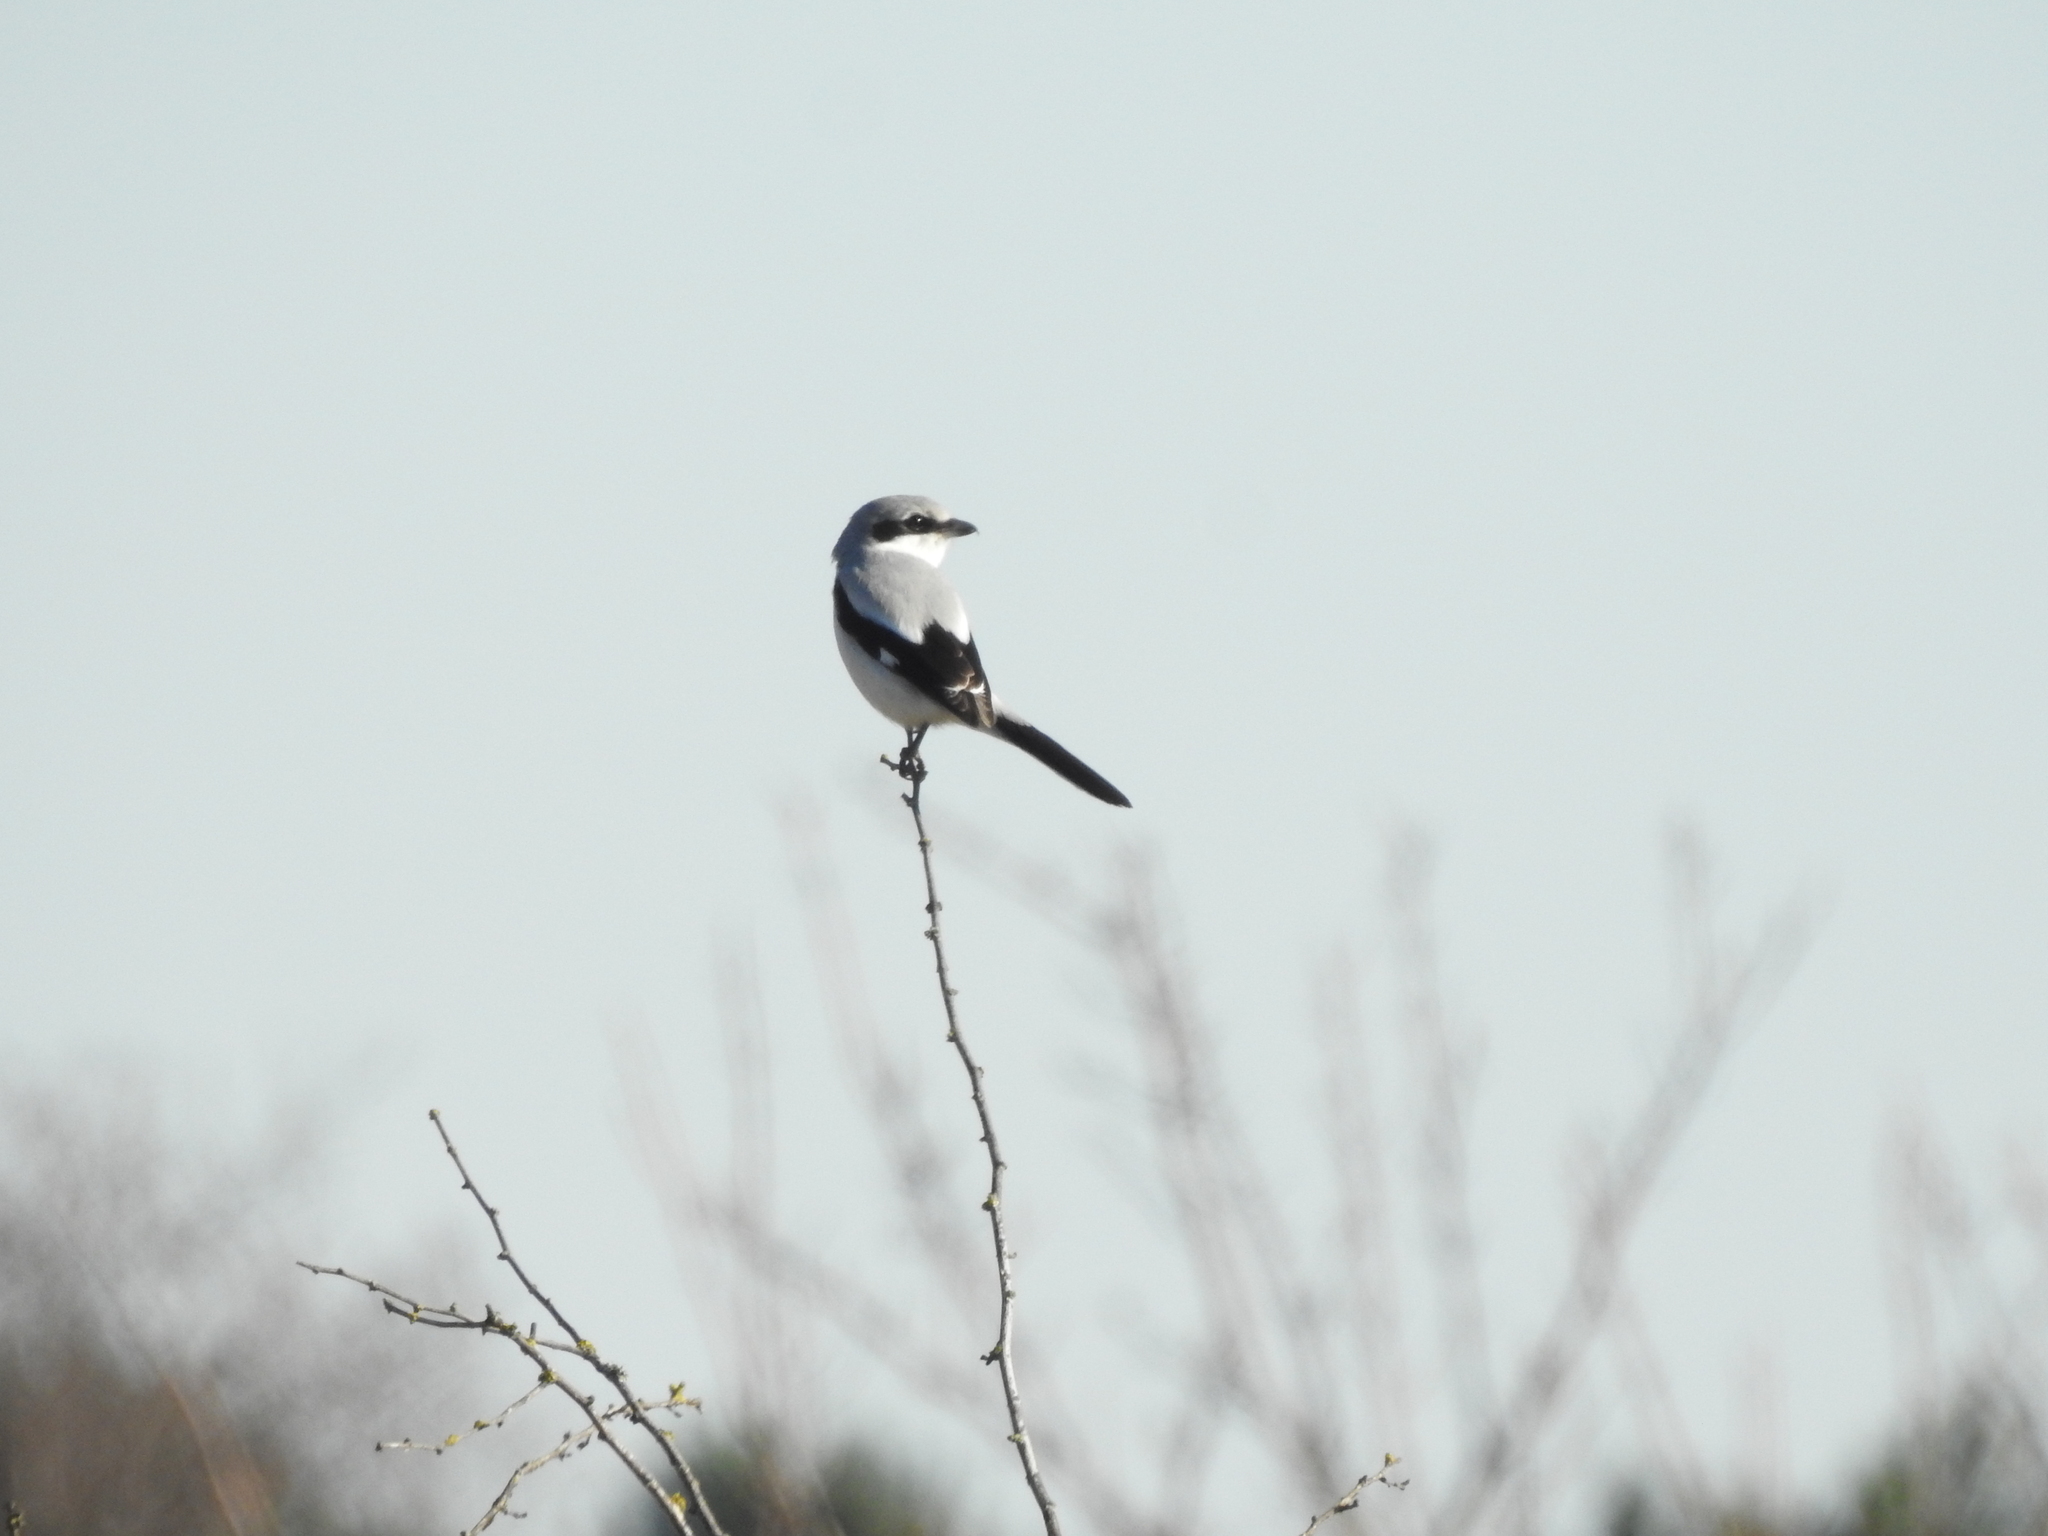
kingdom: Animalia
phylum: Chordata
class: Aves
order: Passeriformes
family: Laniidae
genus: Lanius
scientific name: Lanius excubitor
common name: Great grey shrike
